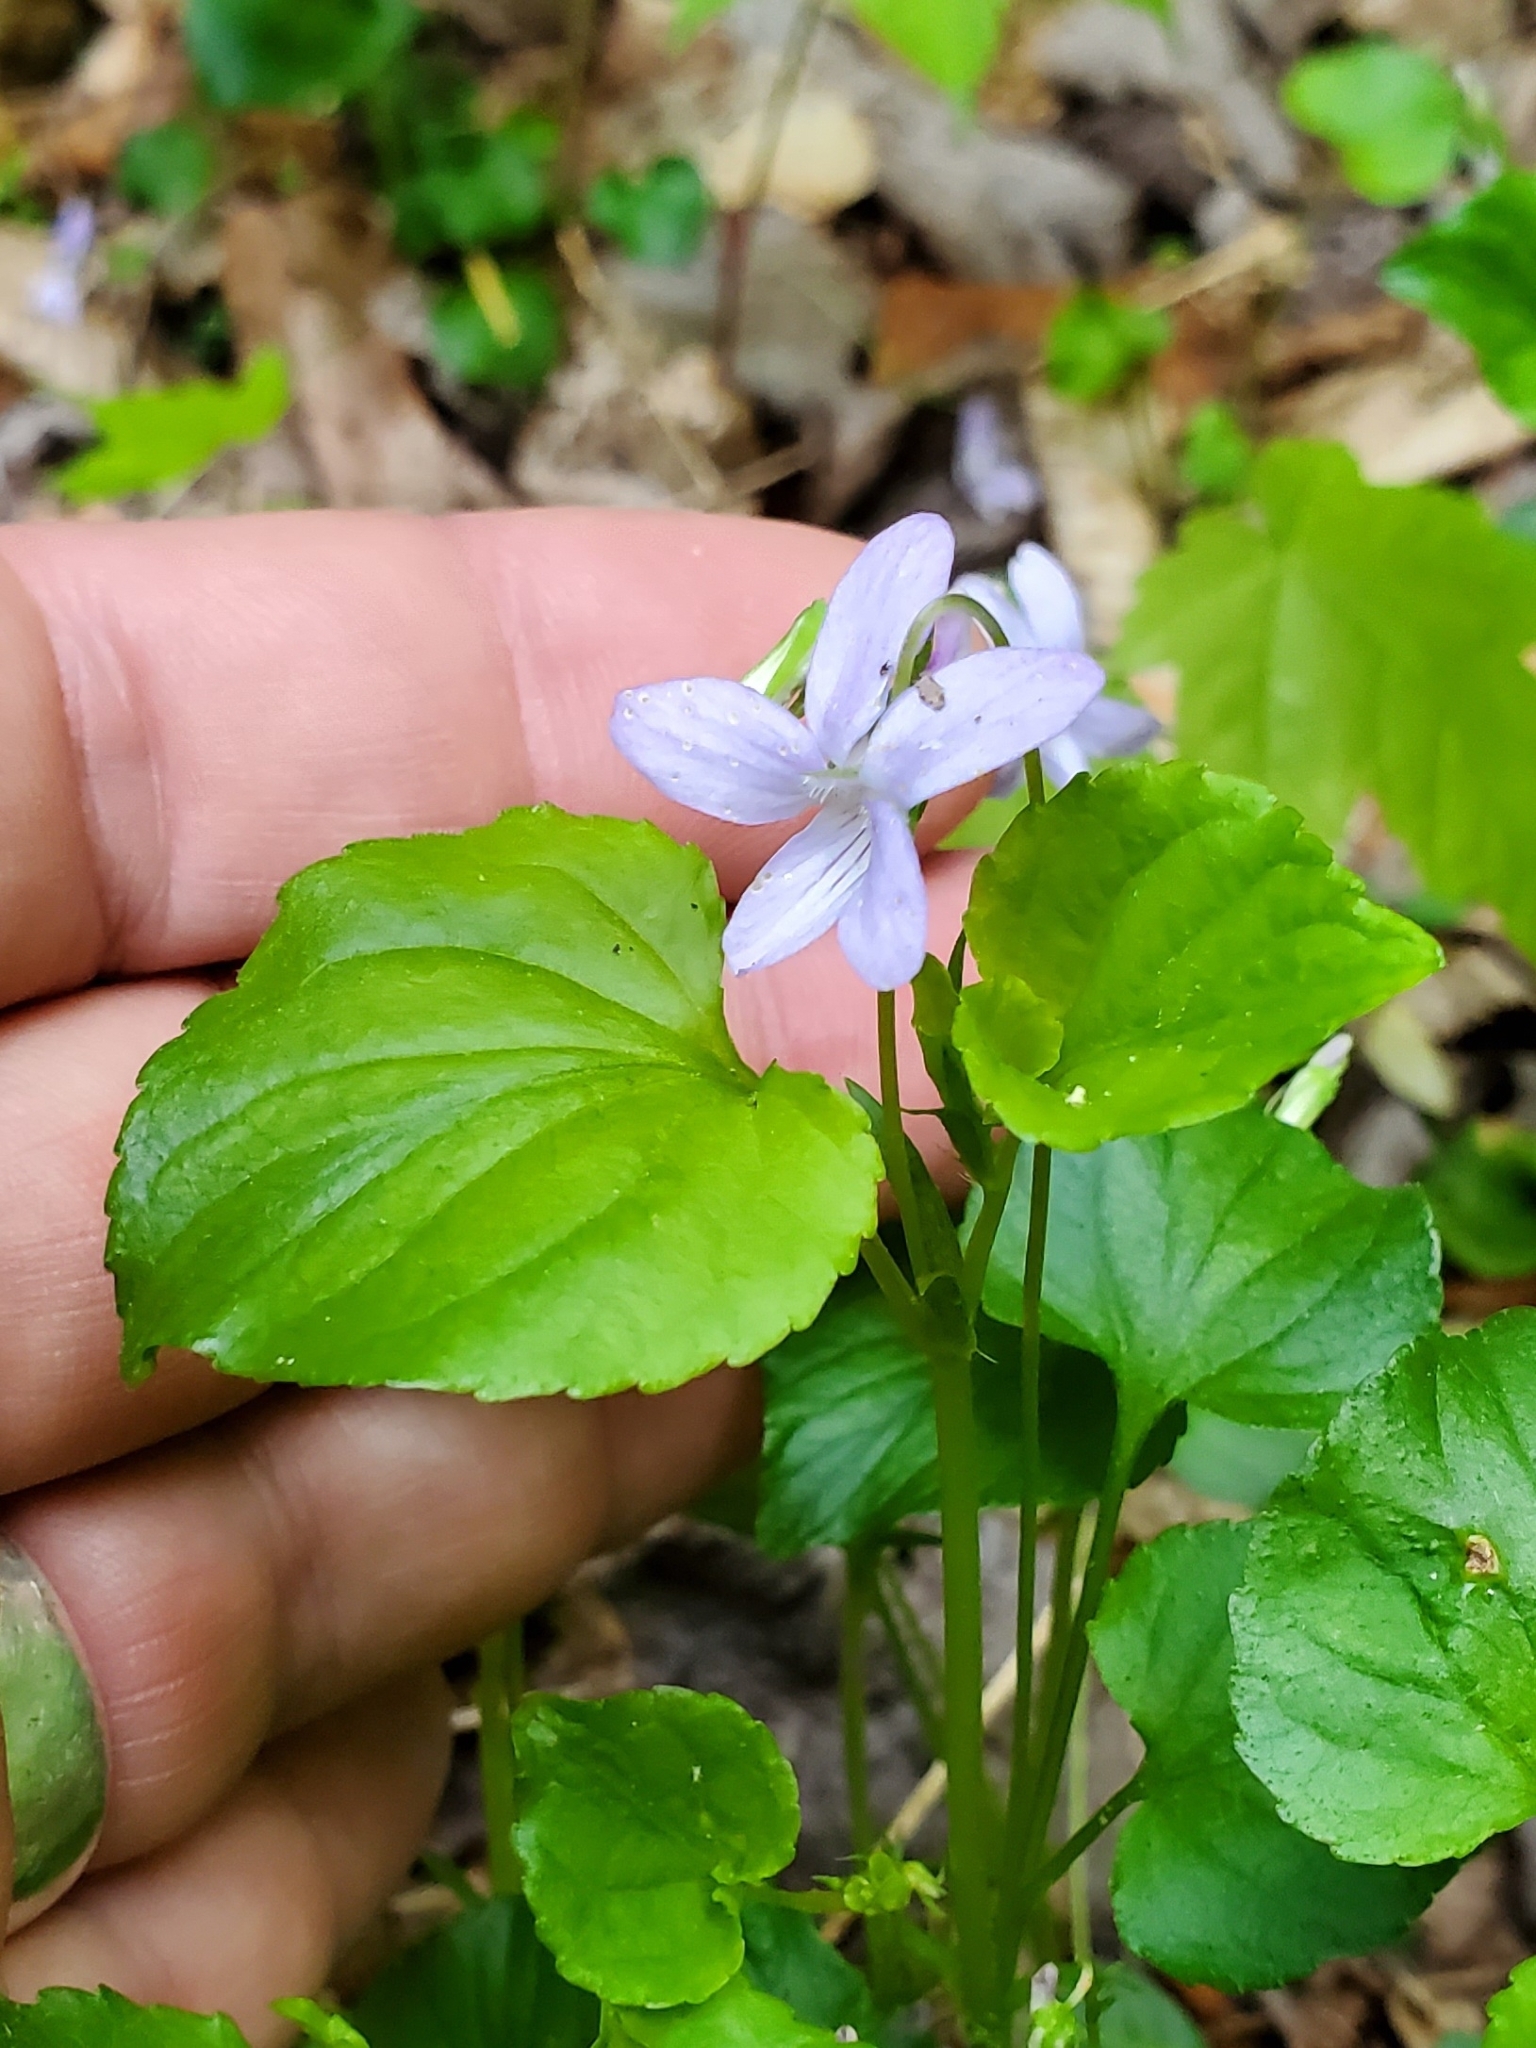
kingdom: Plantae
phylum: Tracheophyta
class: Magnoliopsida
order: Malpighiales
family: Violaceae
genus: Viola
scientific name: Viola labradorica
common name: Labrador violet
